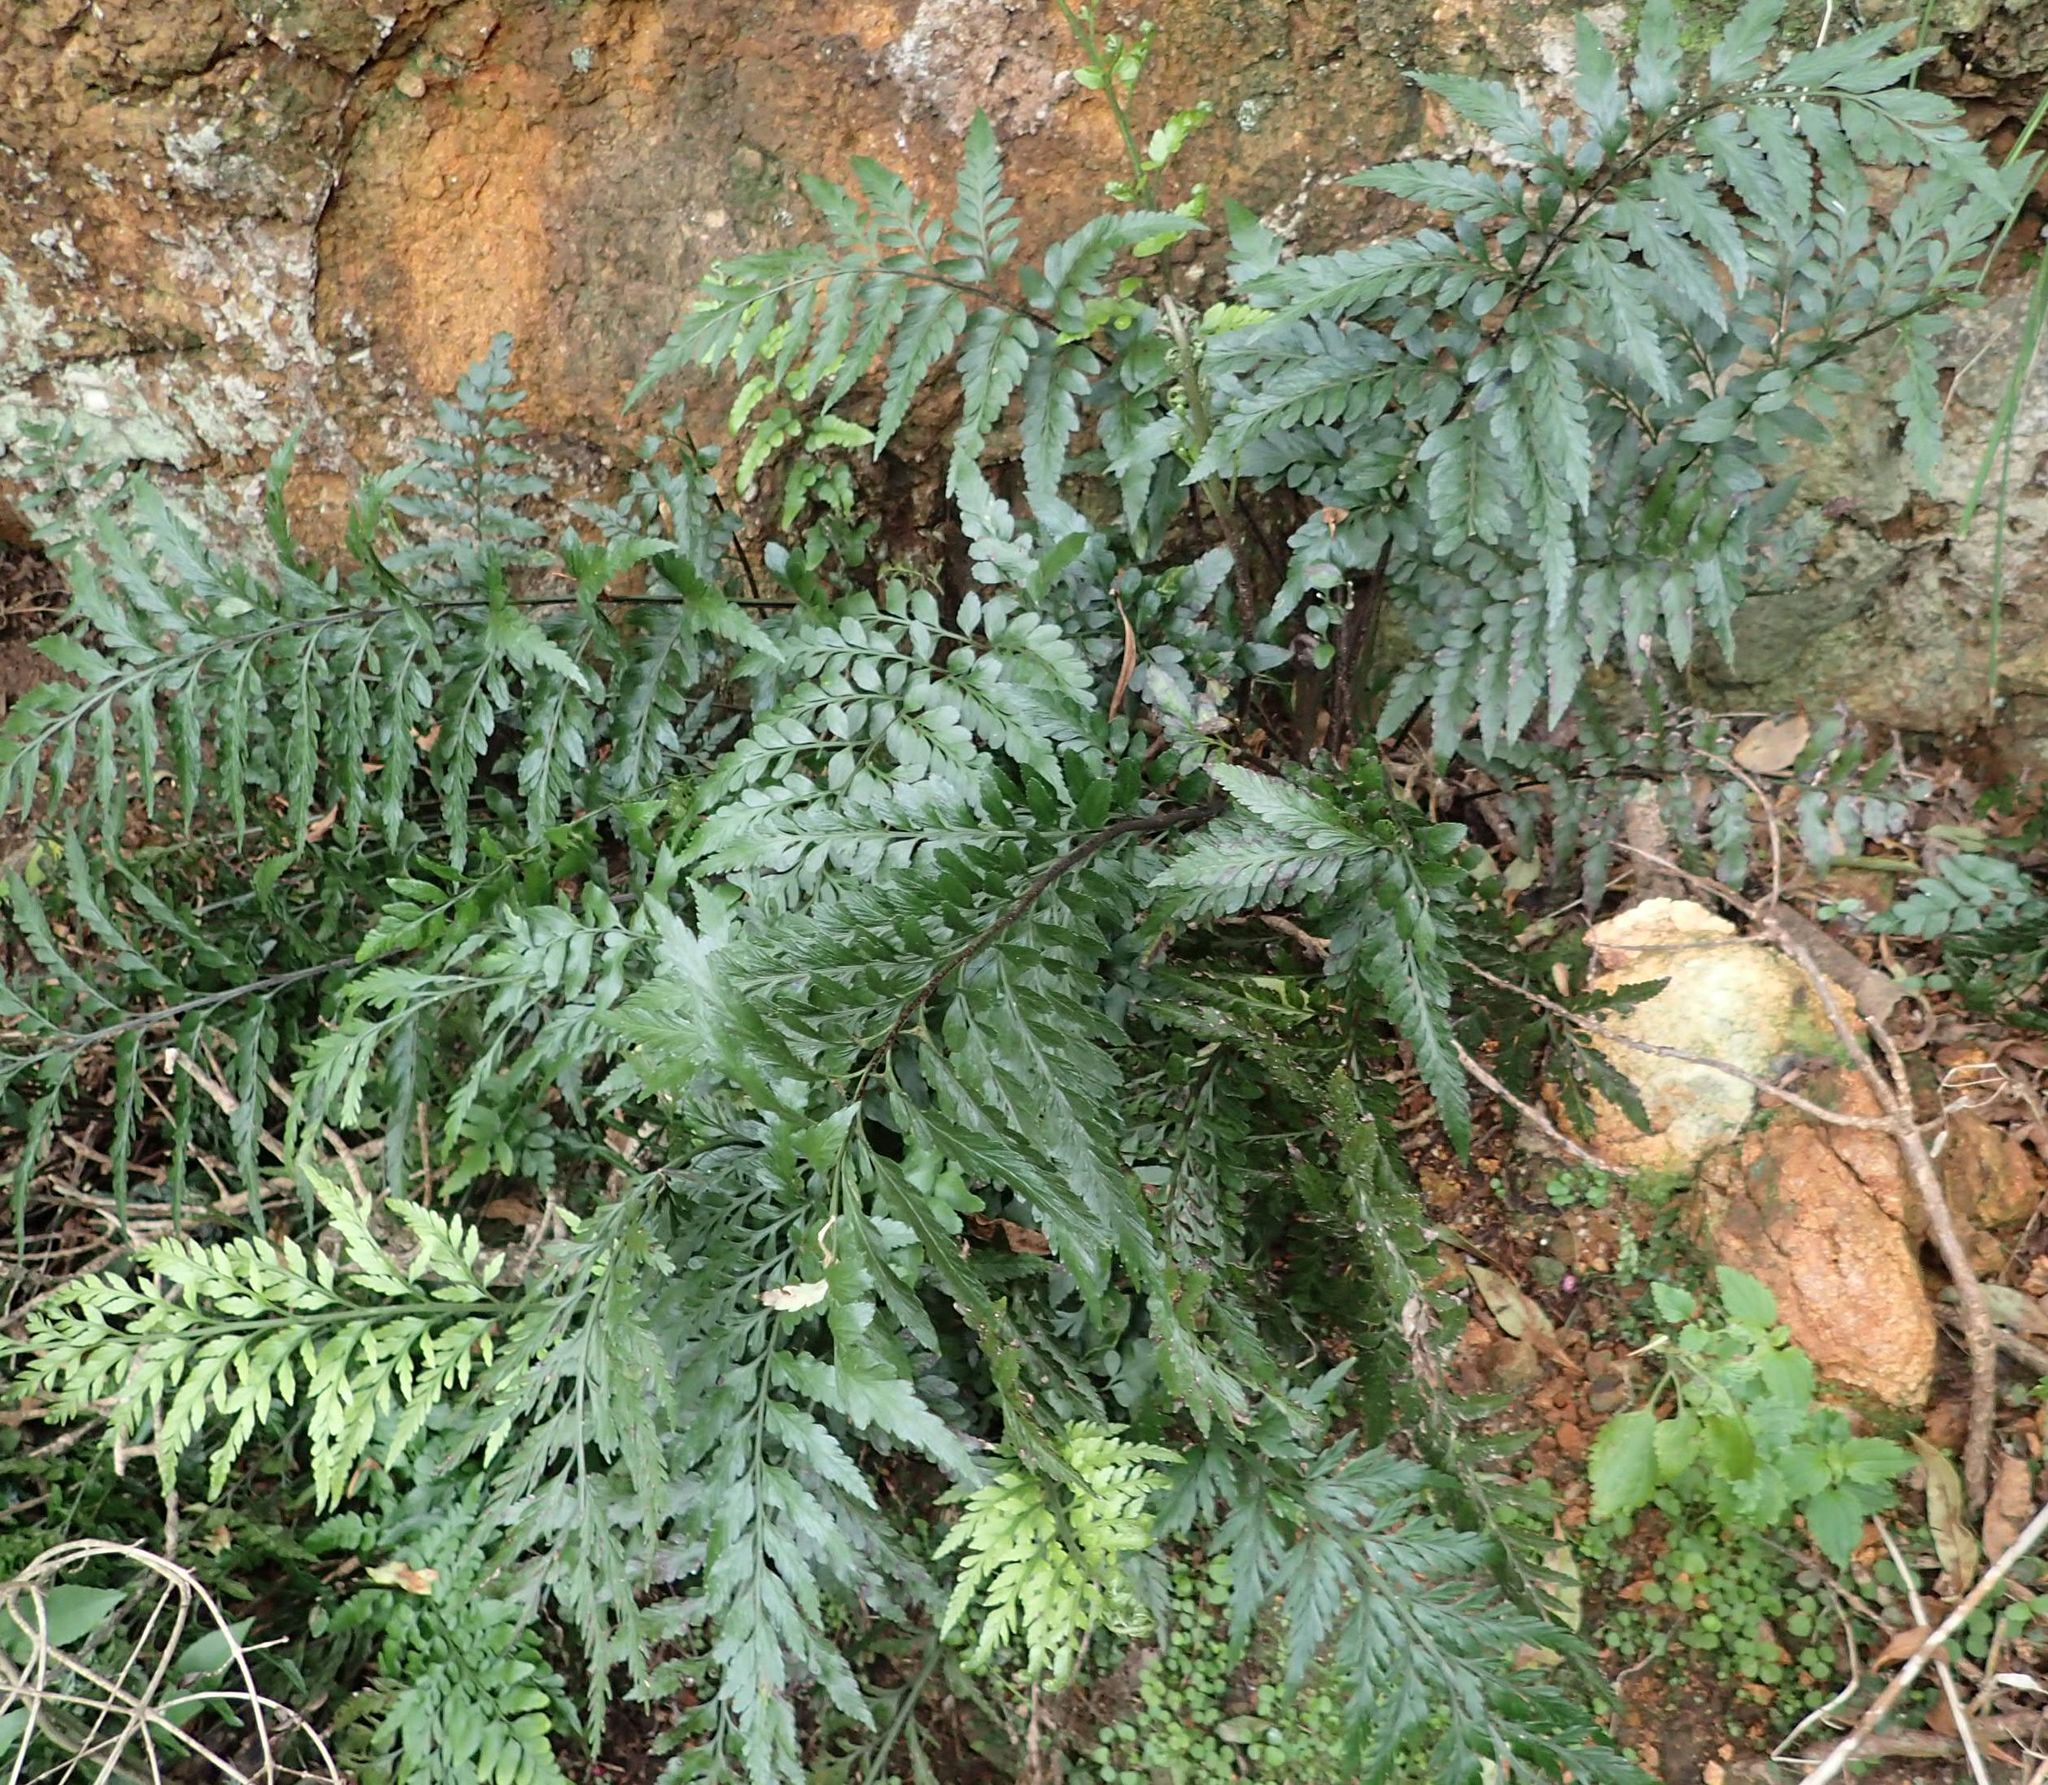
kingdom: Plantae
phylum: Tracheophyta
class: Polypodiopsida
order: Polypodiales
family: Aspleniaceae
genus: Asplenium
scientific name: Asplenium lyallii
